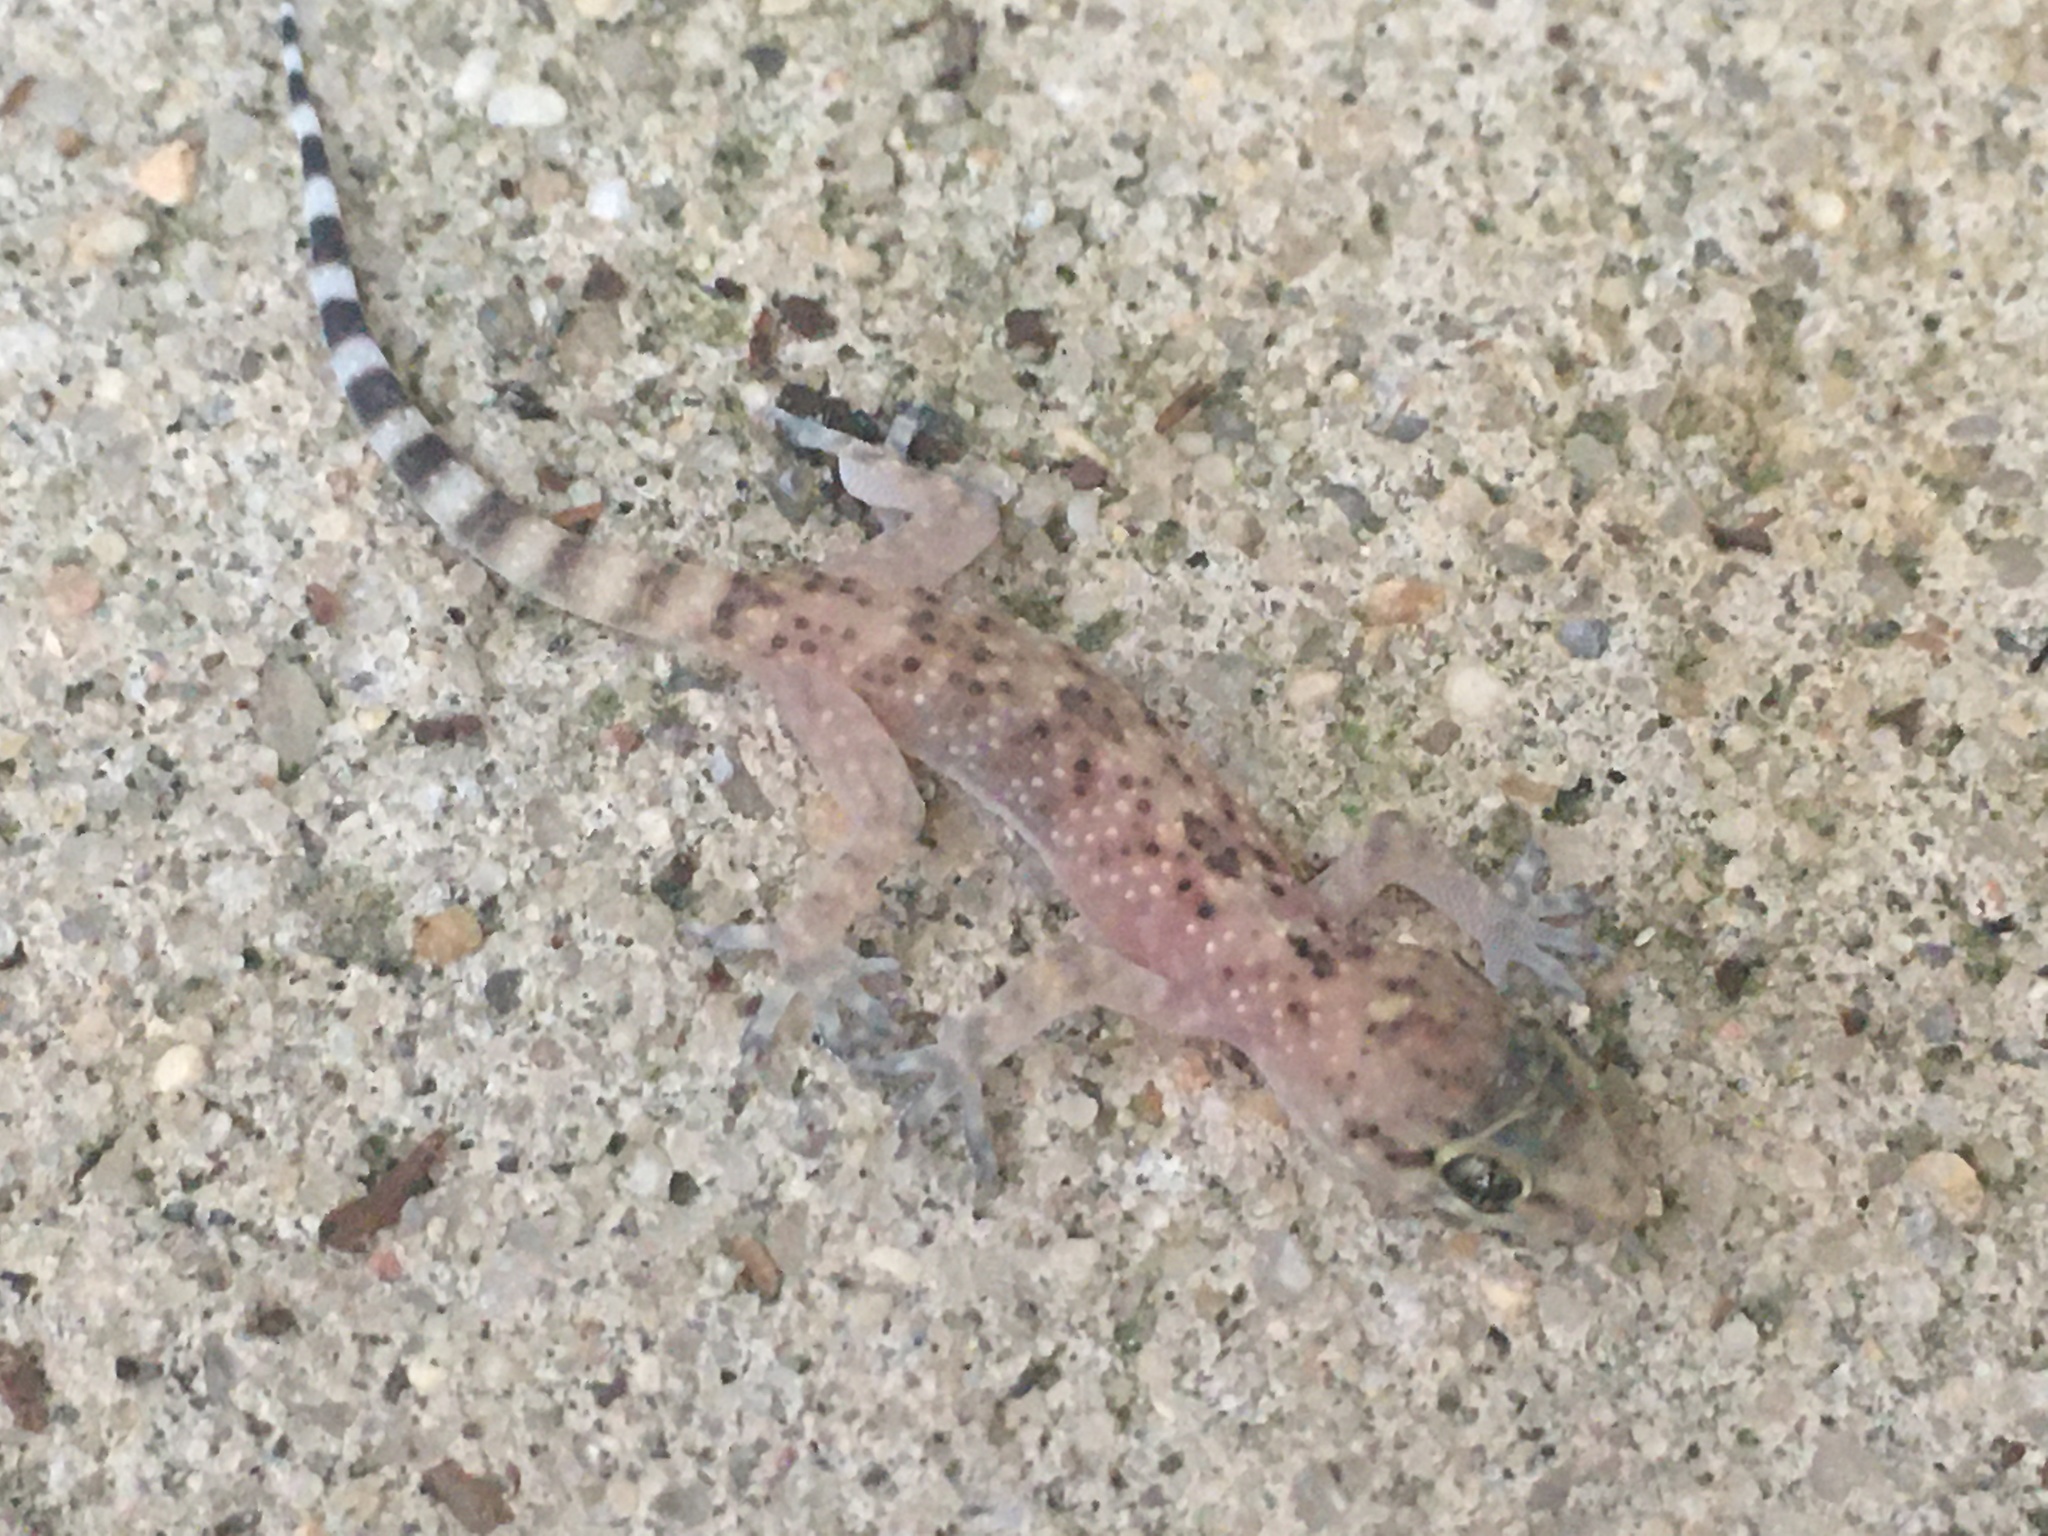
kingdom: Animalia
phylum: Chordata
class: Squamata
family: Gekkonidae
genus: Hemidactylus
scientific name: Hemidactylus turcicus
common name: Turkish gecko
